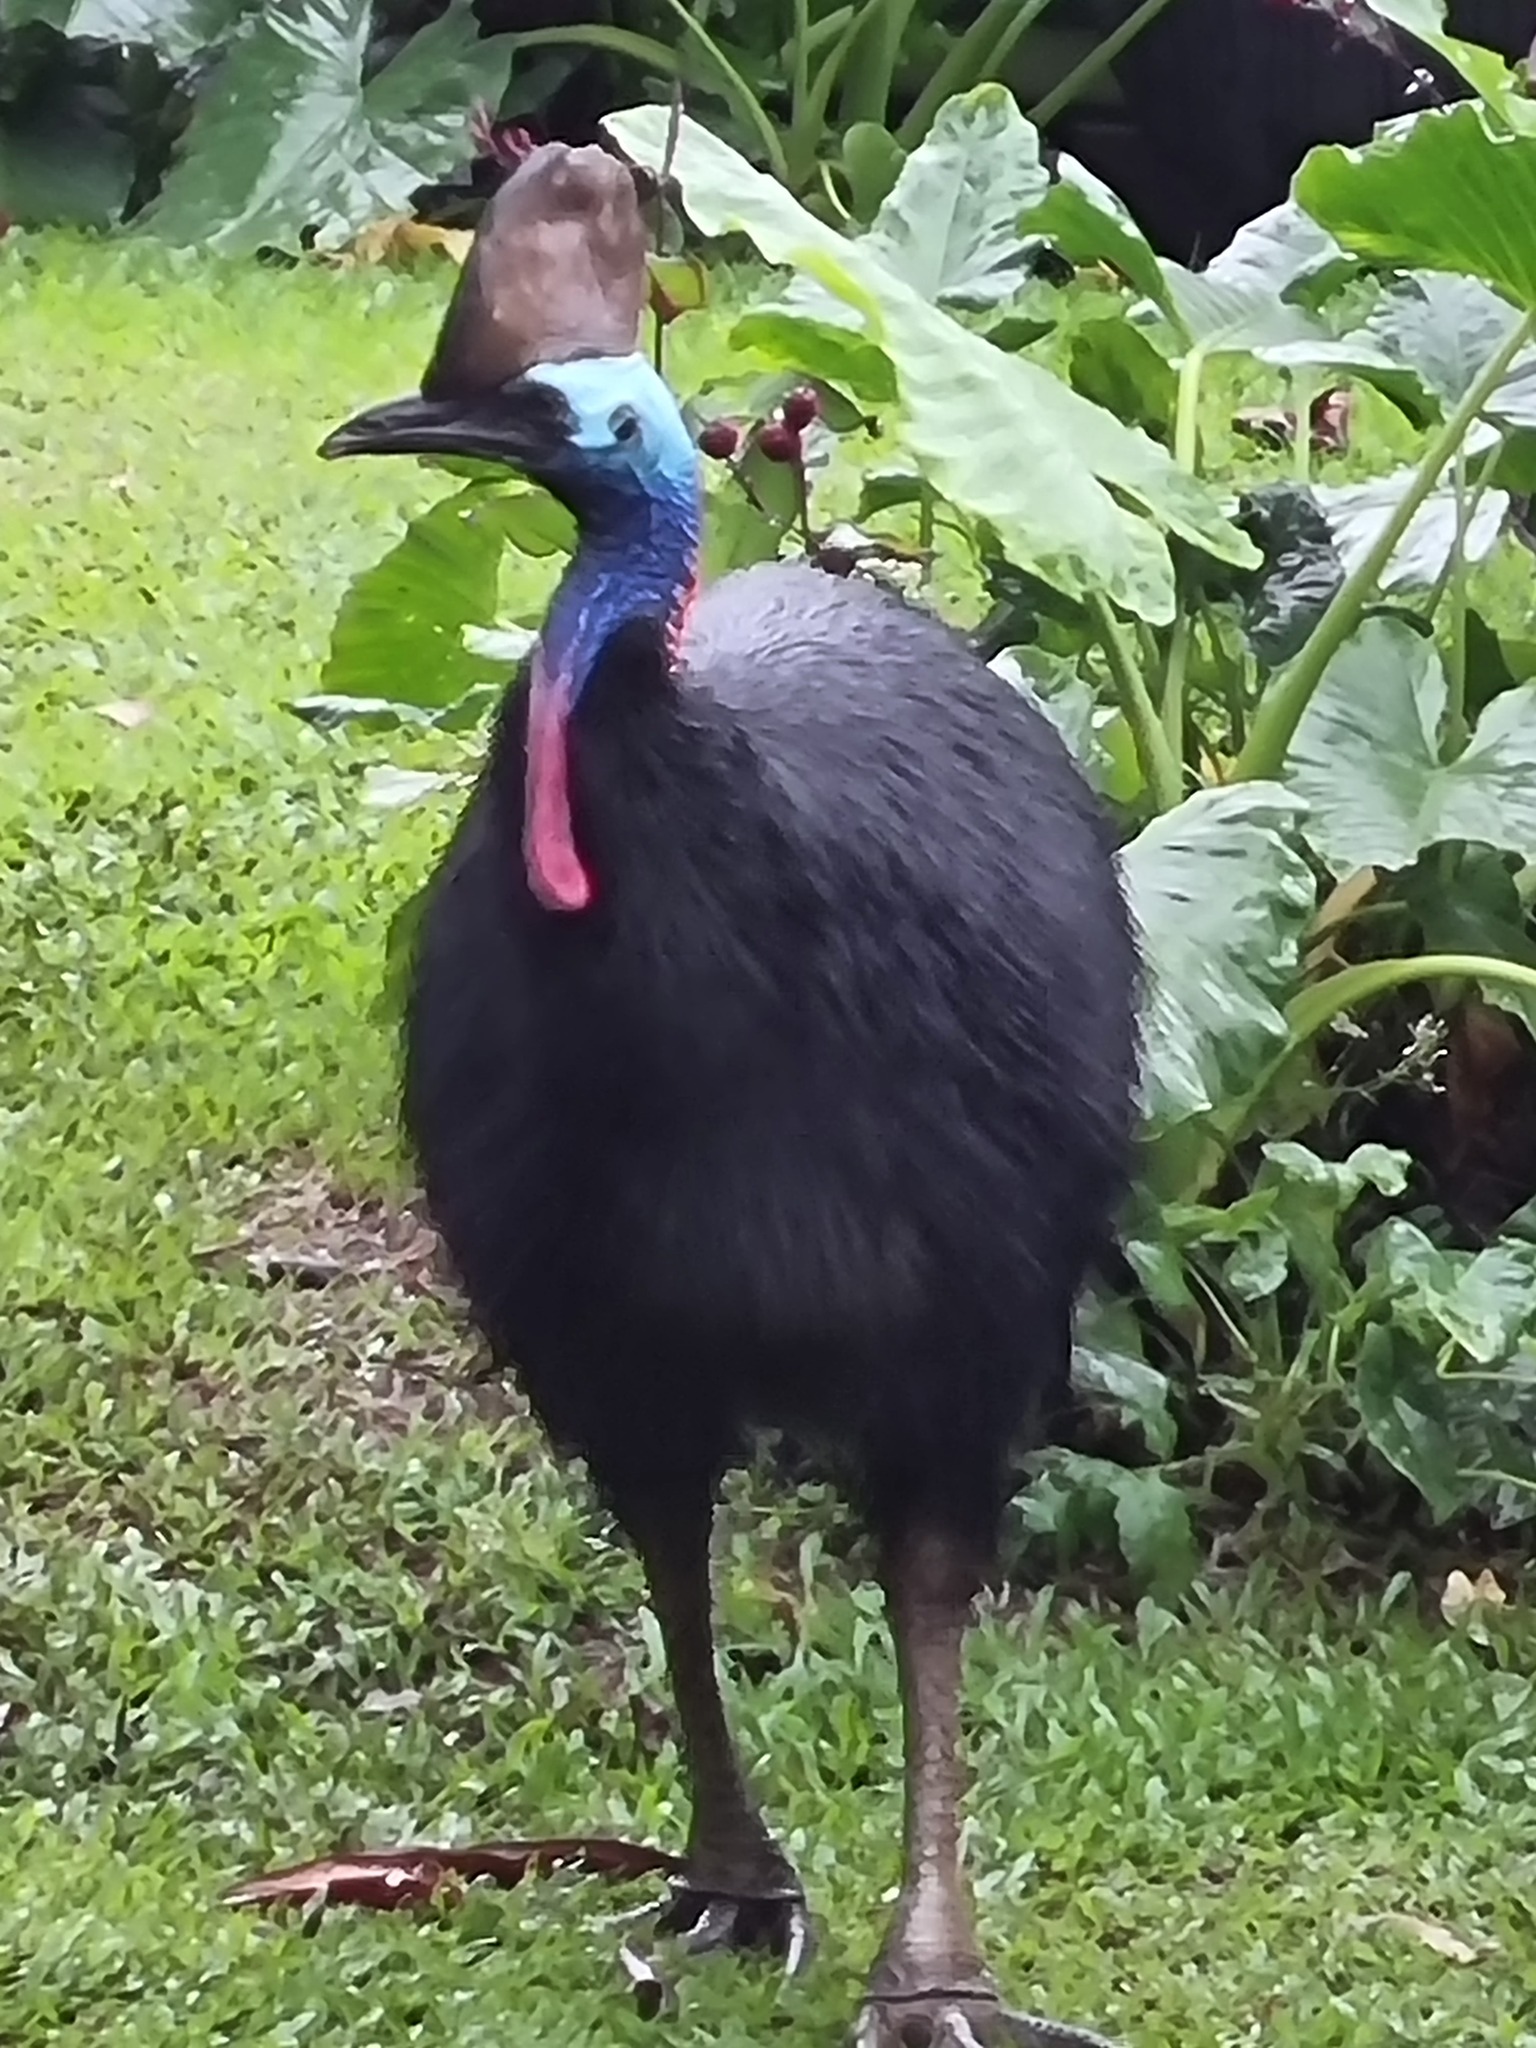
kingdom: Animalia
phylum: Chordata
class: Aves
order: Casuariiformes
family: Casuariidae
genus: Casuarius
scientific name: Casuarius casuarius
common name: Southern cassowary
